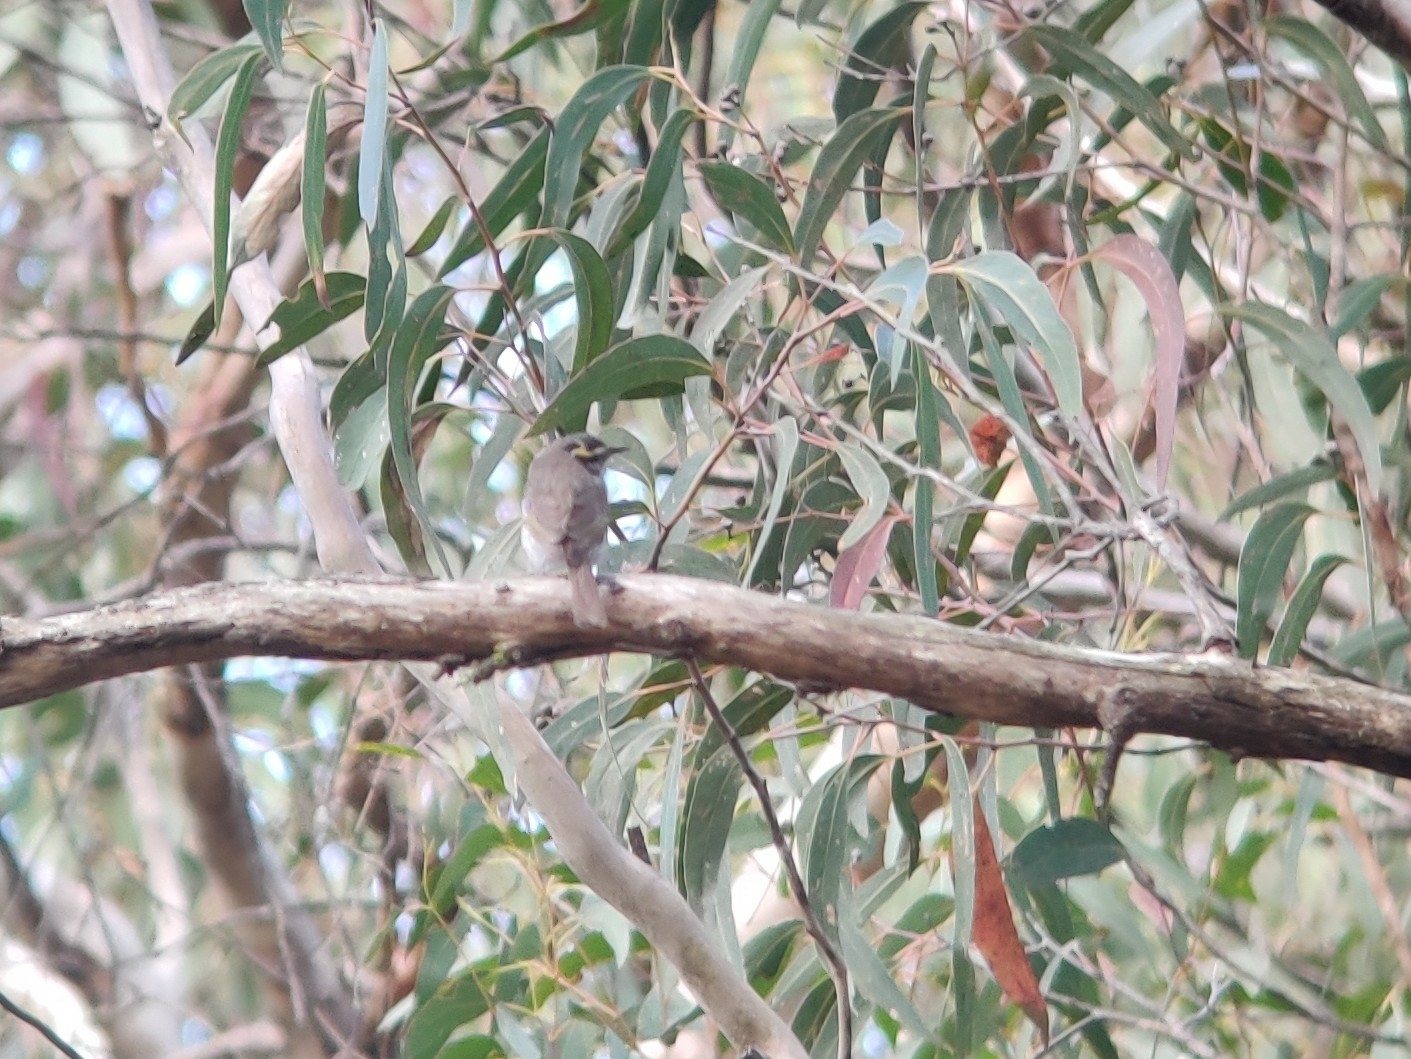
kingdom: Animalia
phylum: Chordata
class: Aves
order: Passeriformes
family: Meliphagidae
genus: Caligavis
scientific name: Caligavis chrysops
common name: Yellow-faced honeyeater
